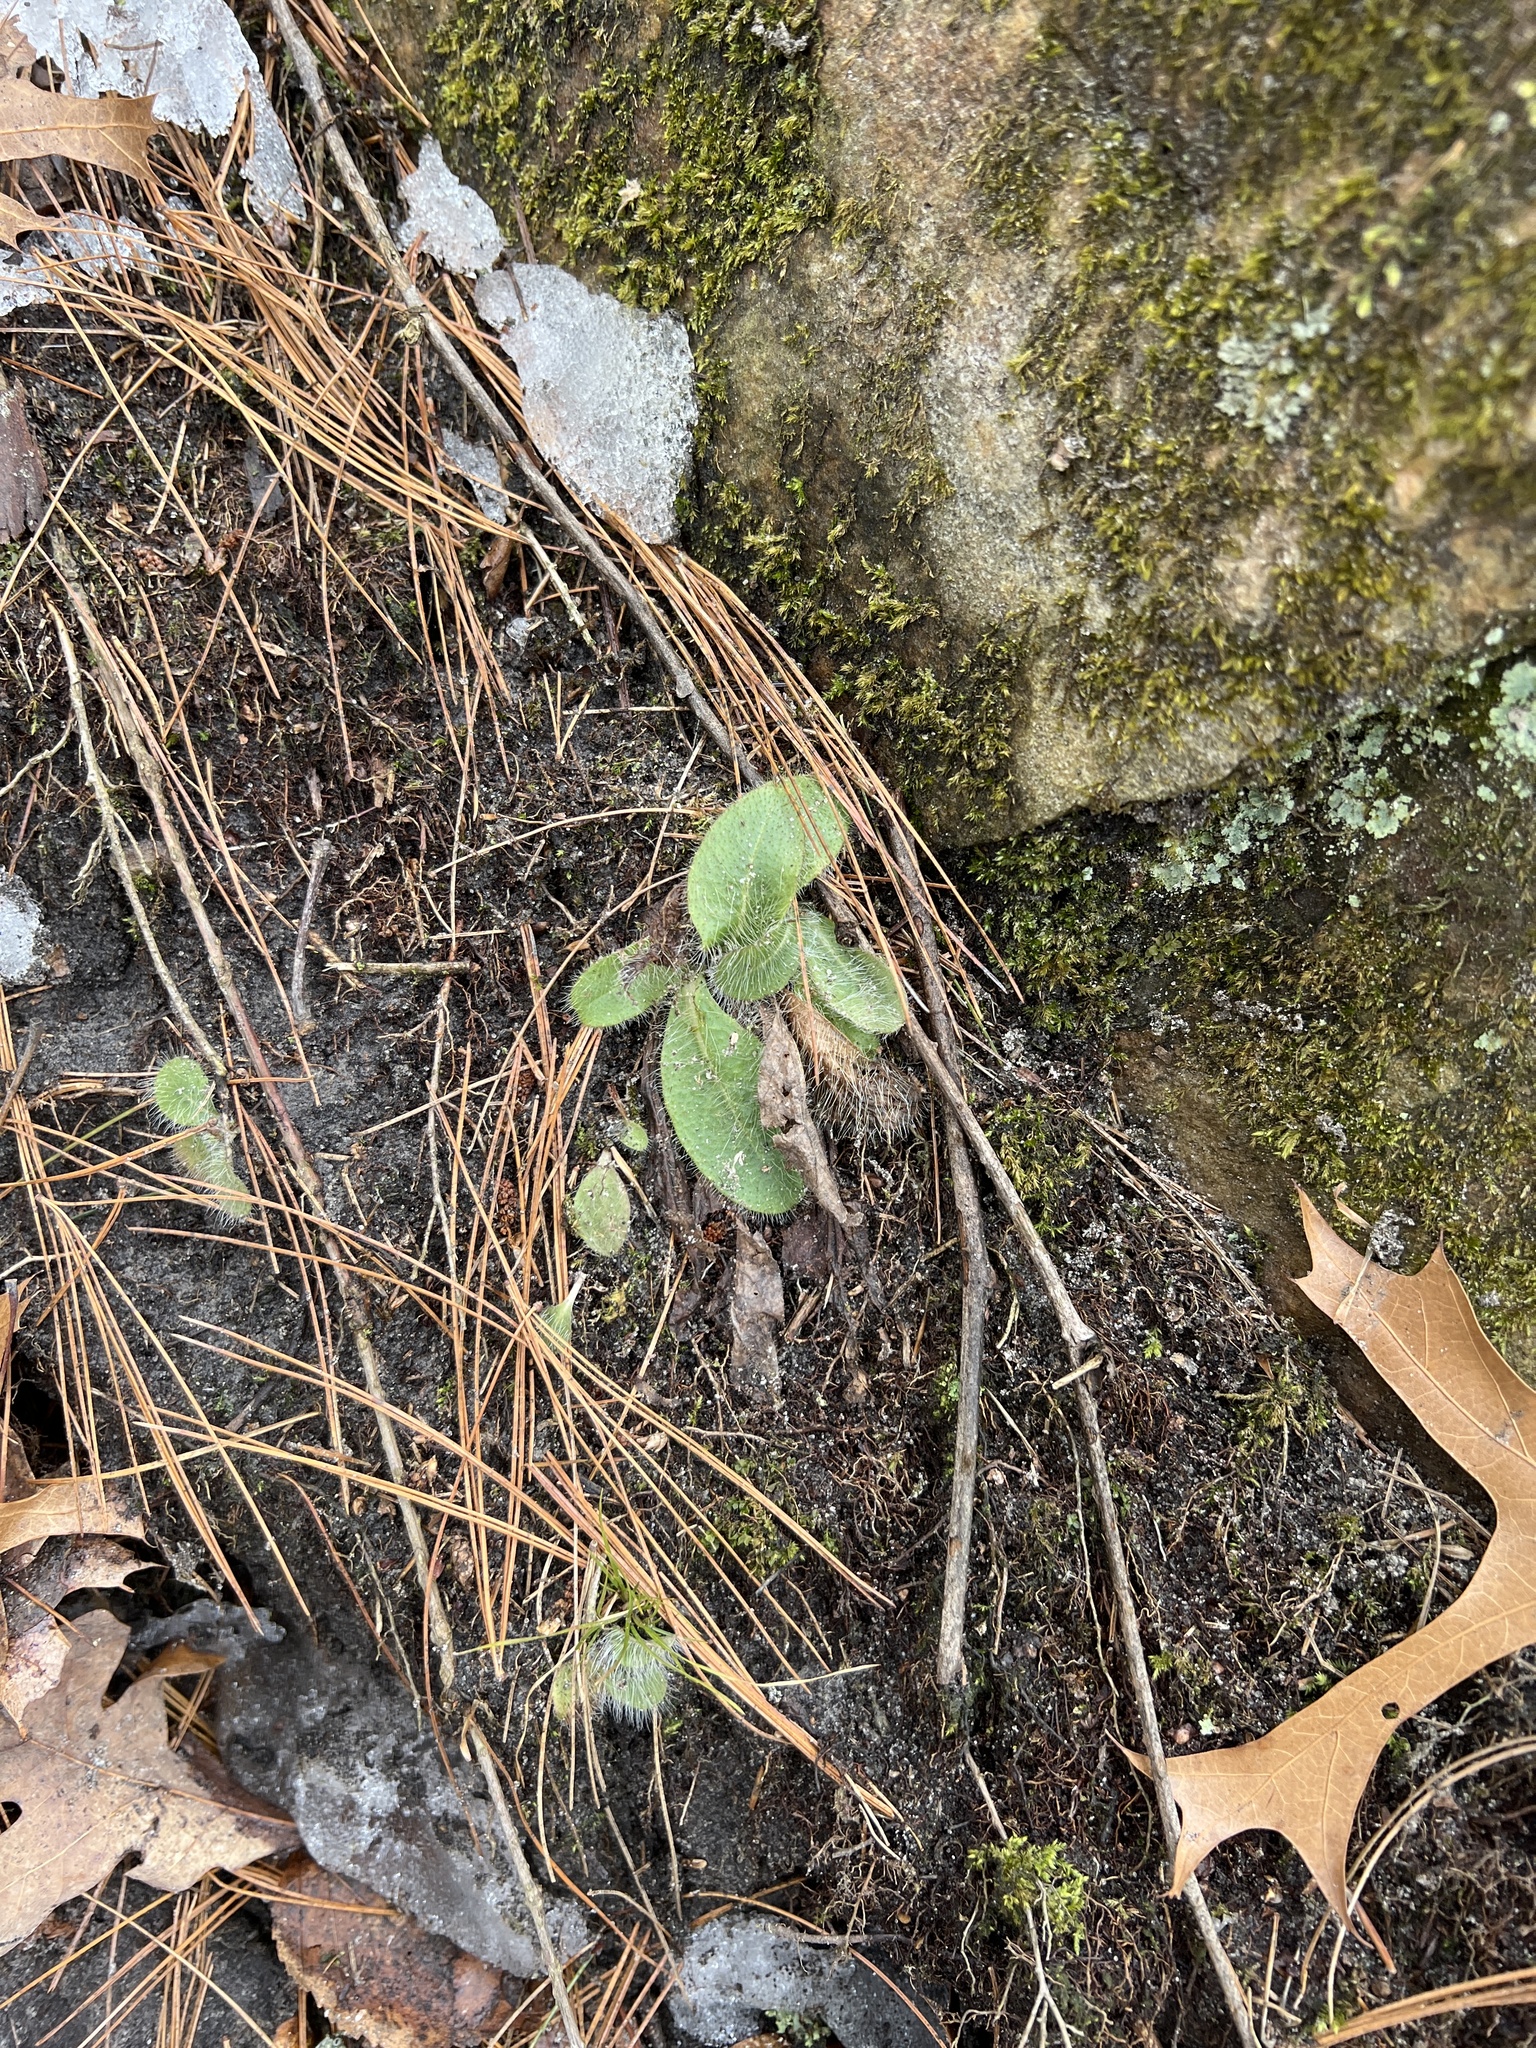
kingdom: Plantae
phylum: Tracheophyta
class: Magnoliopsida
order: Asterales
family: Asteraceae
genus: Hieracium
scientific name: Hieracium longipilum
